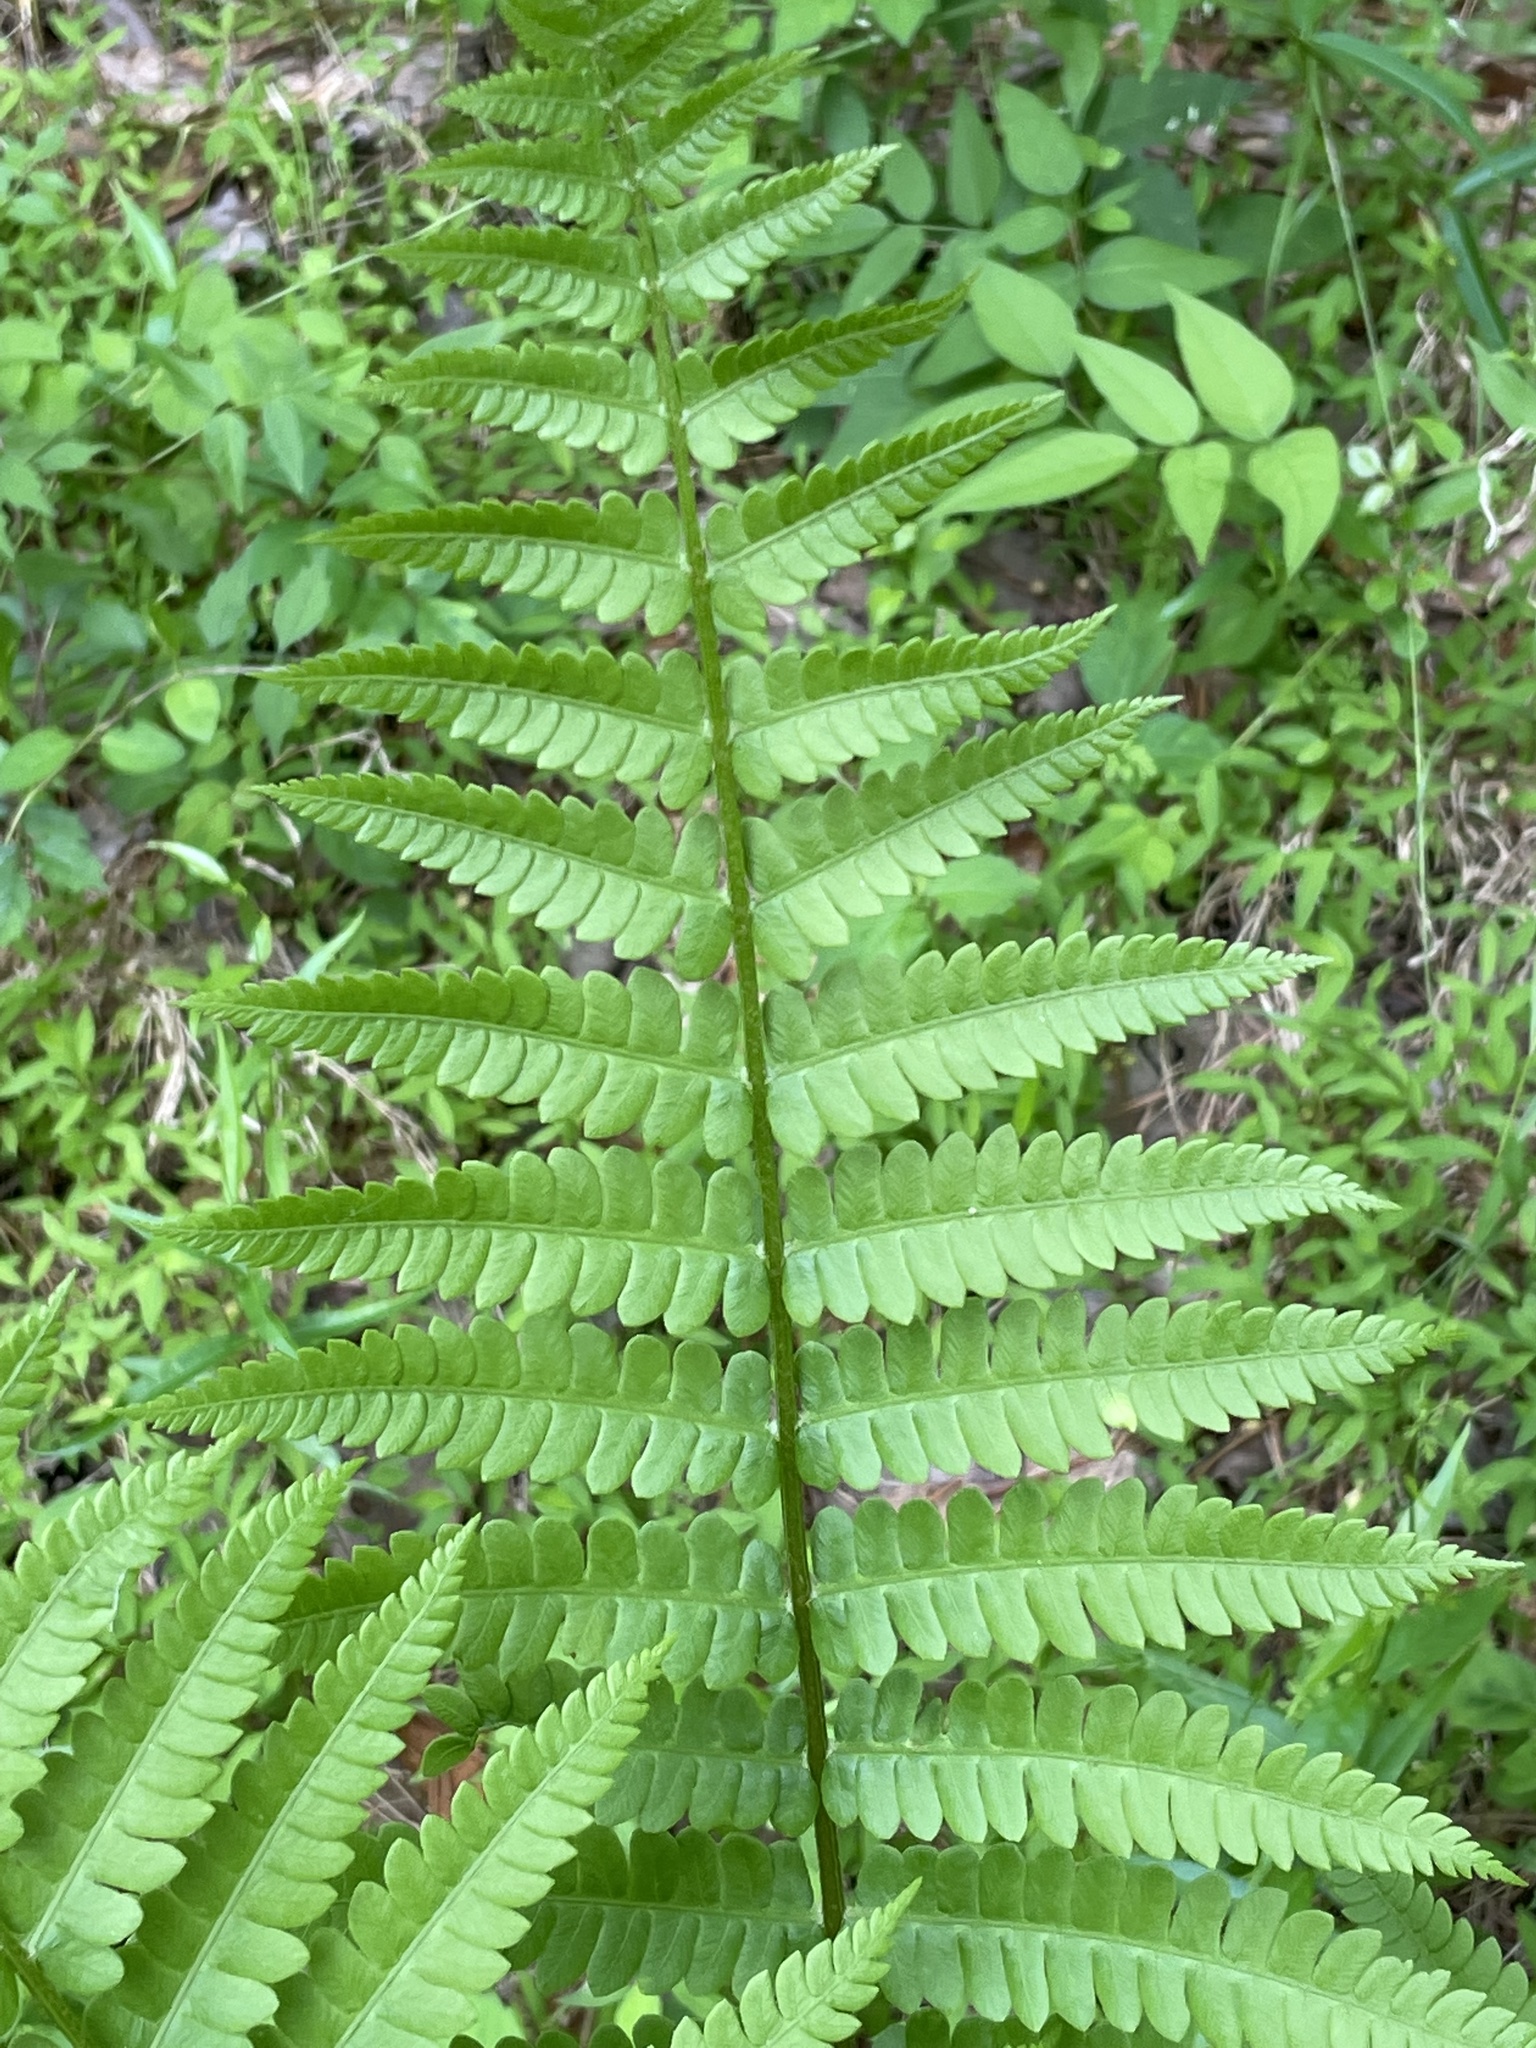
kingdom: Plantae
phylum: Tracheophyta
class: Polypodiopsida
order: Osmundales
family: Osmundaceae
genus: Osmundastrum
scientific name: Osmundastrum cinnamomeum
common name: Cinnamon fern
